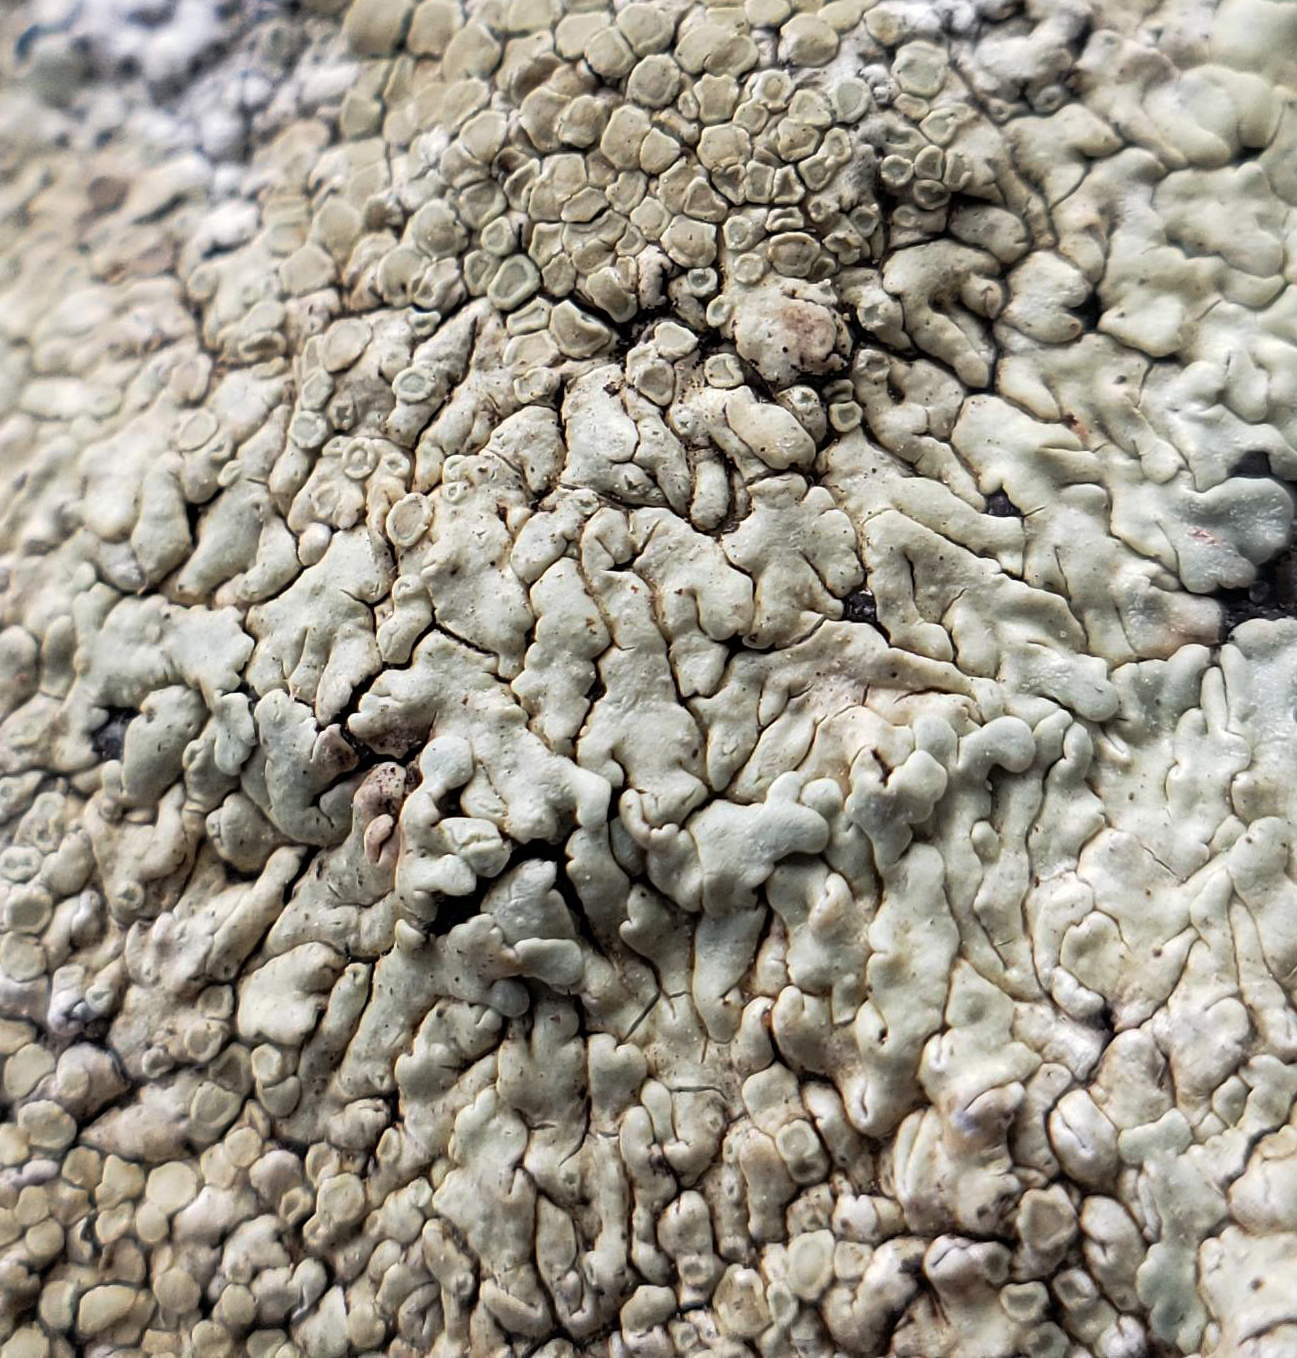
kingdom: Fungi
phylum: Ascomycota
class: Lecanoromycetes
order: Lecanorales
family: Lecanoraceae
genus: Protoparmeliopsis
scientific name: Protoparmeliopsis muralis
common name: Stonewall rim lichen
